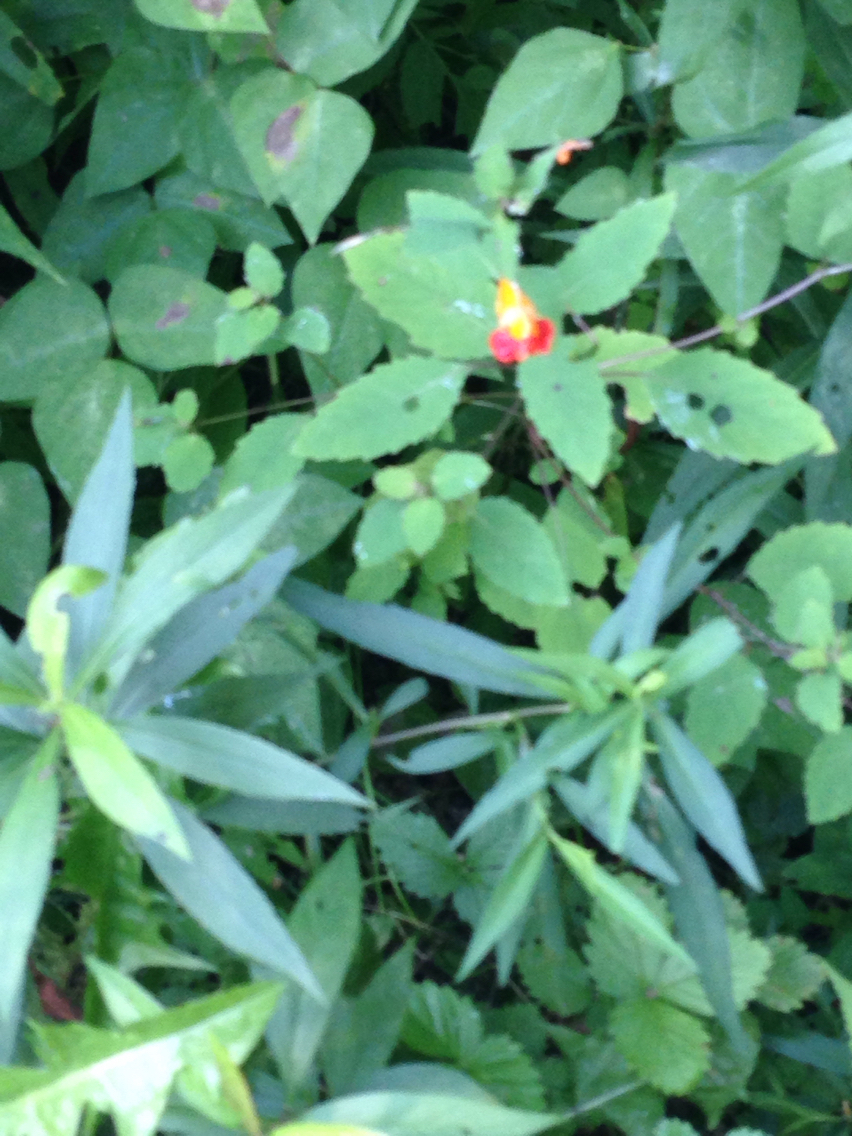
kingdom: Plantae
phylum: Tracheophyta
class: Magnoliopsida
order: Ericales
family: Balsaminaceae
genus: Impatiens
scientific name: Impatiens capensis
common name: Orange balsam
